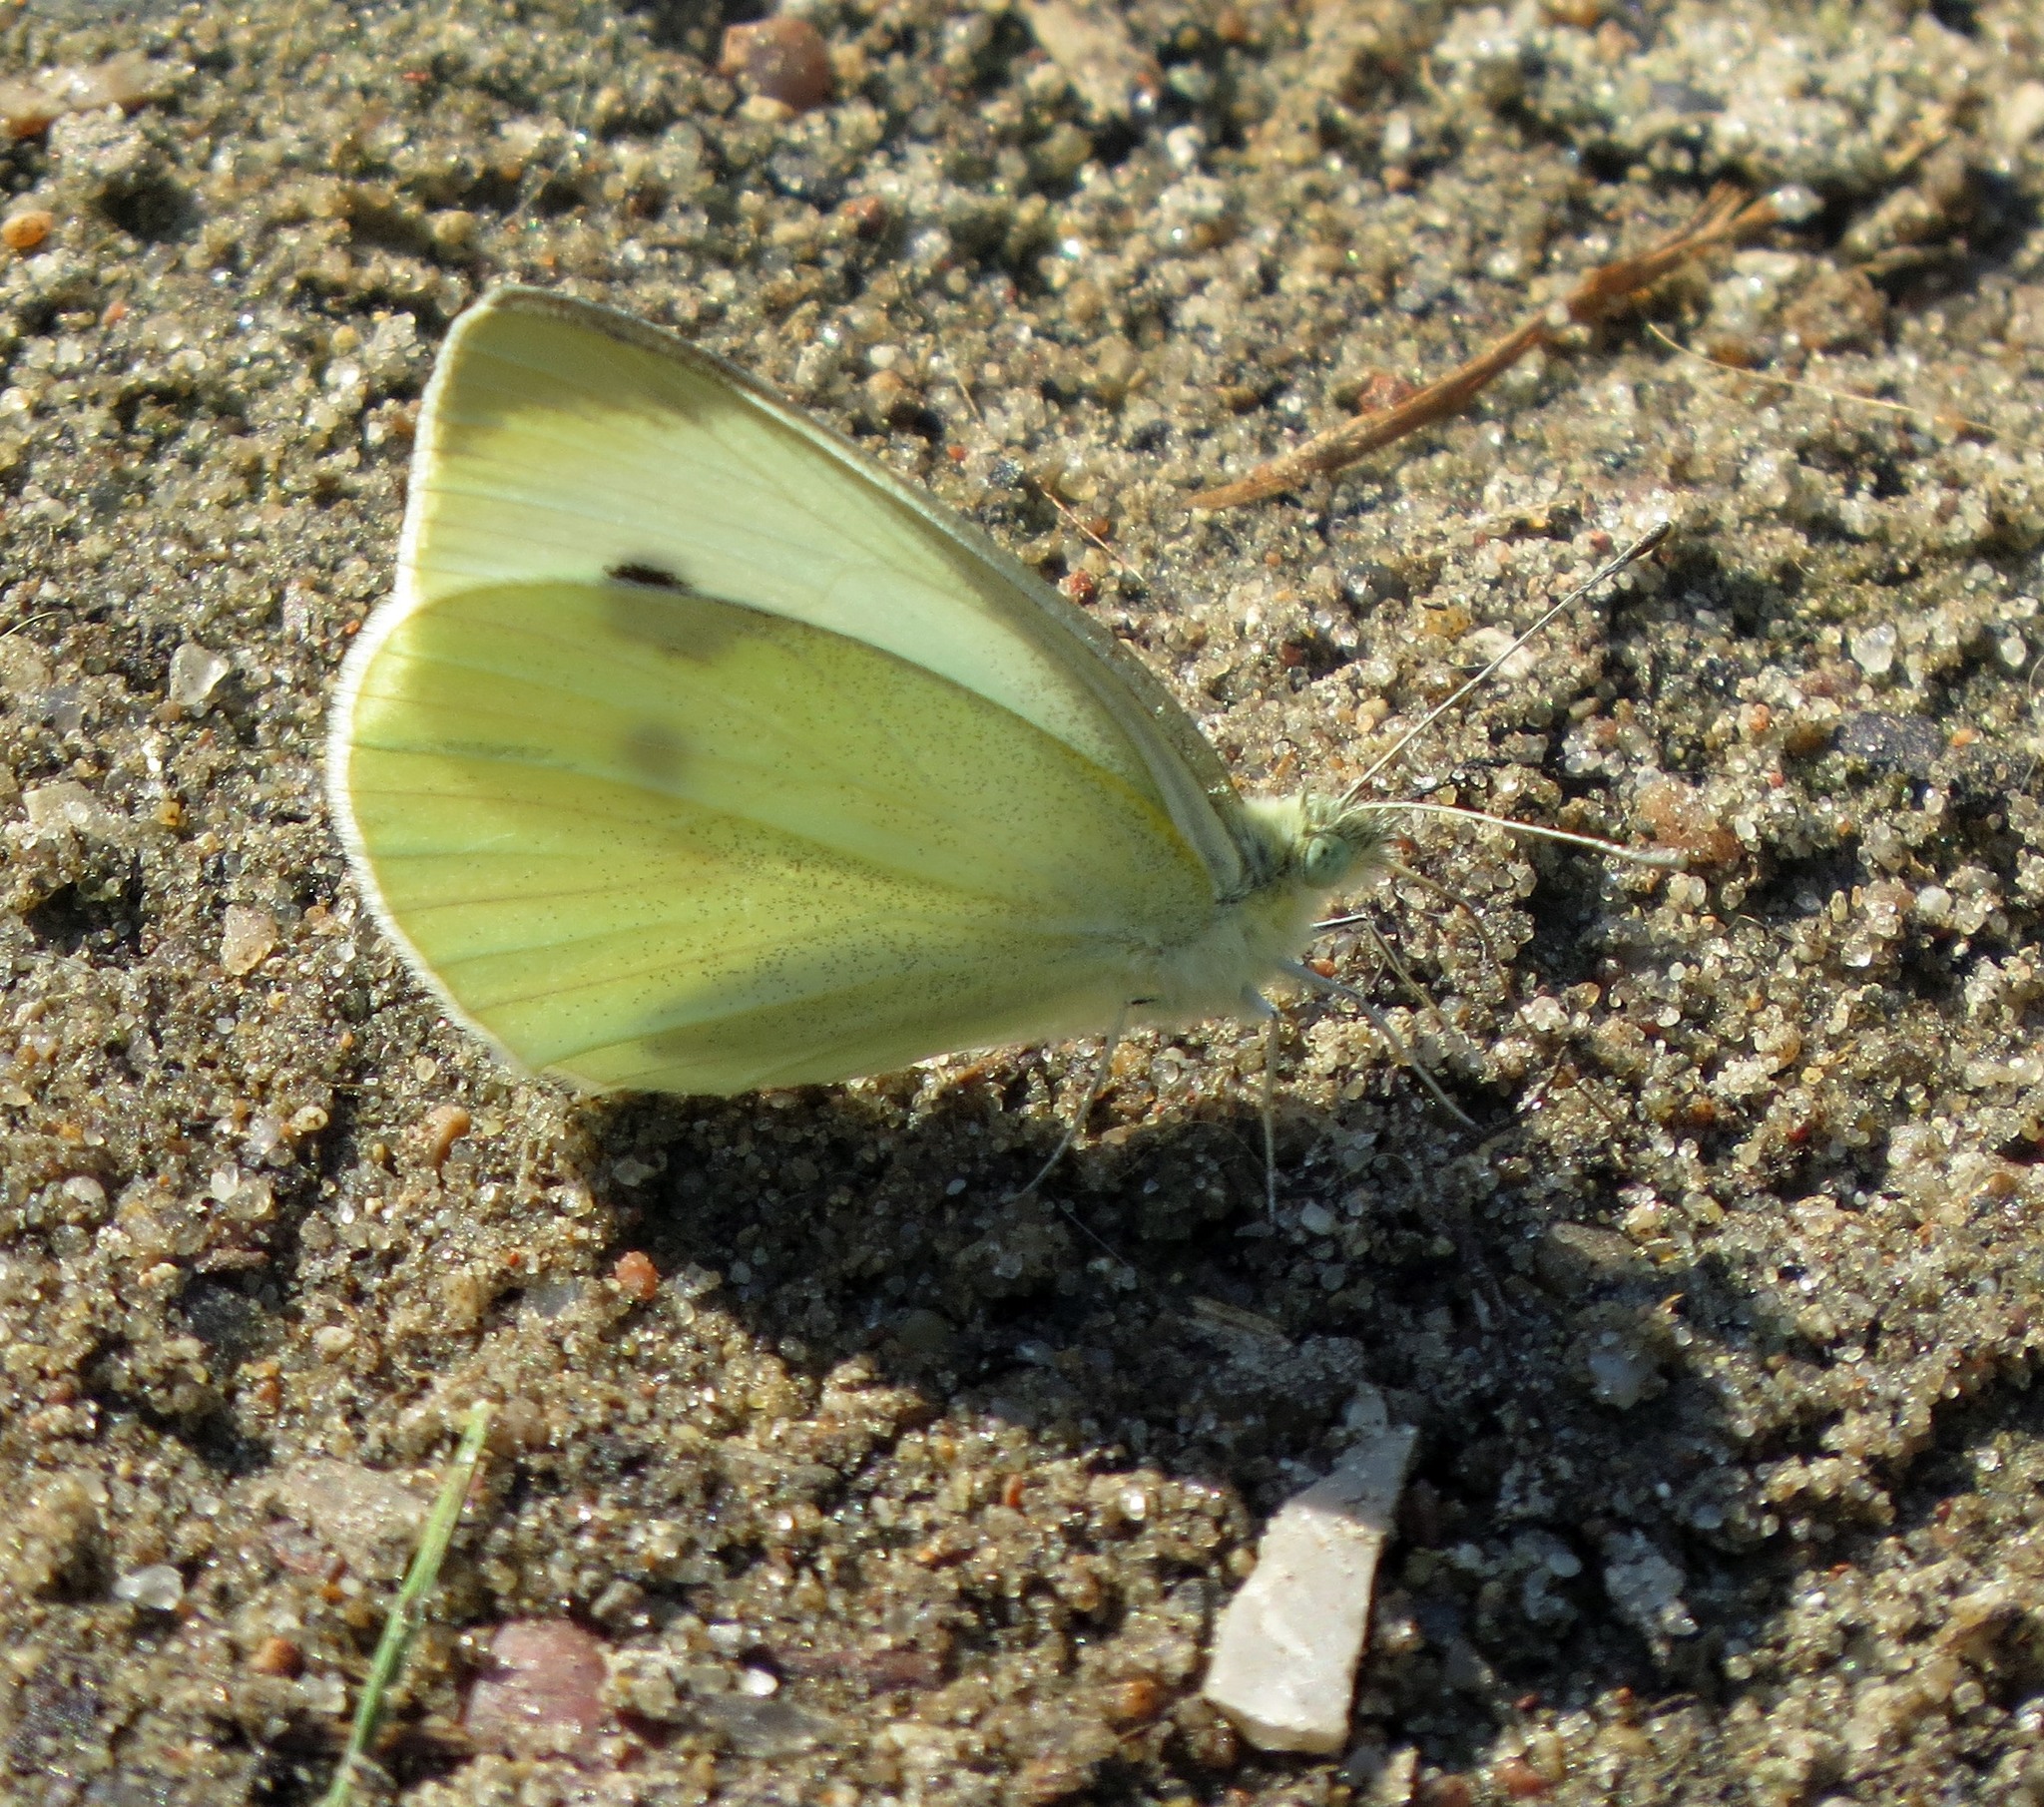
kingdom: Animalia
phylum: Arthropoda
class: Insecta
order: Lepidoptera
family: Pieridae
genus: Pieris
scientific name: Pieris rapae
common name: Small white
